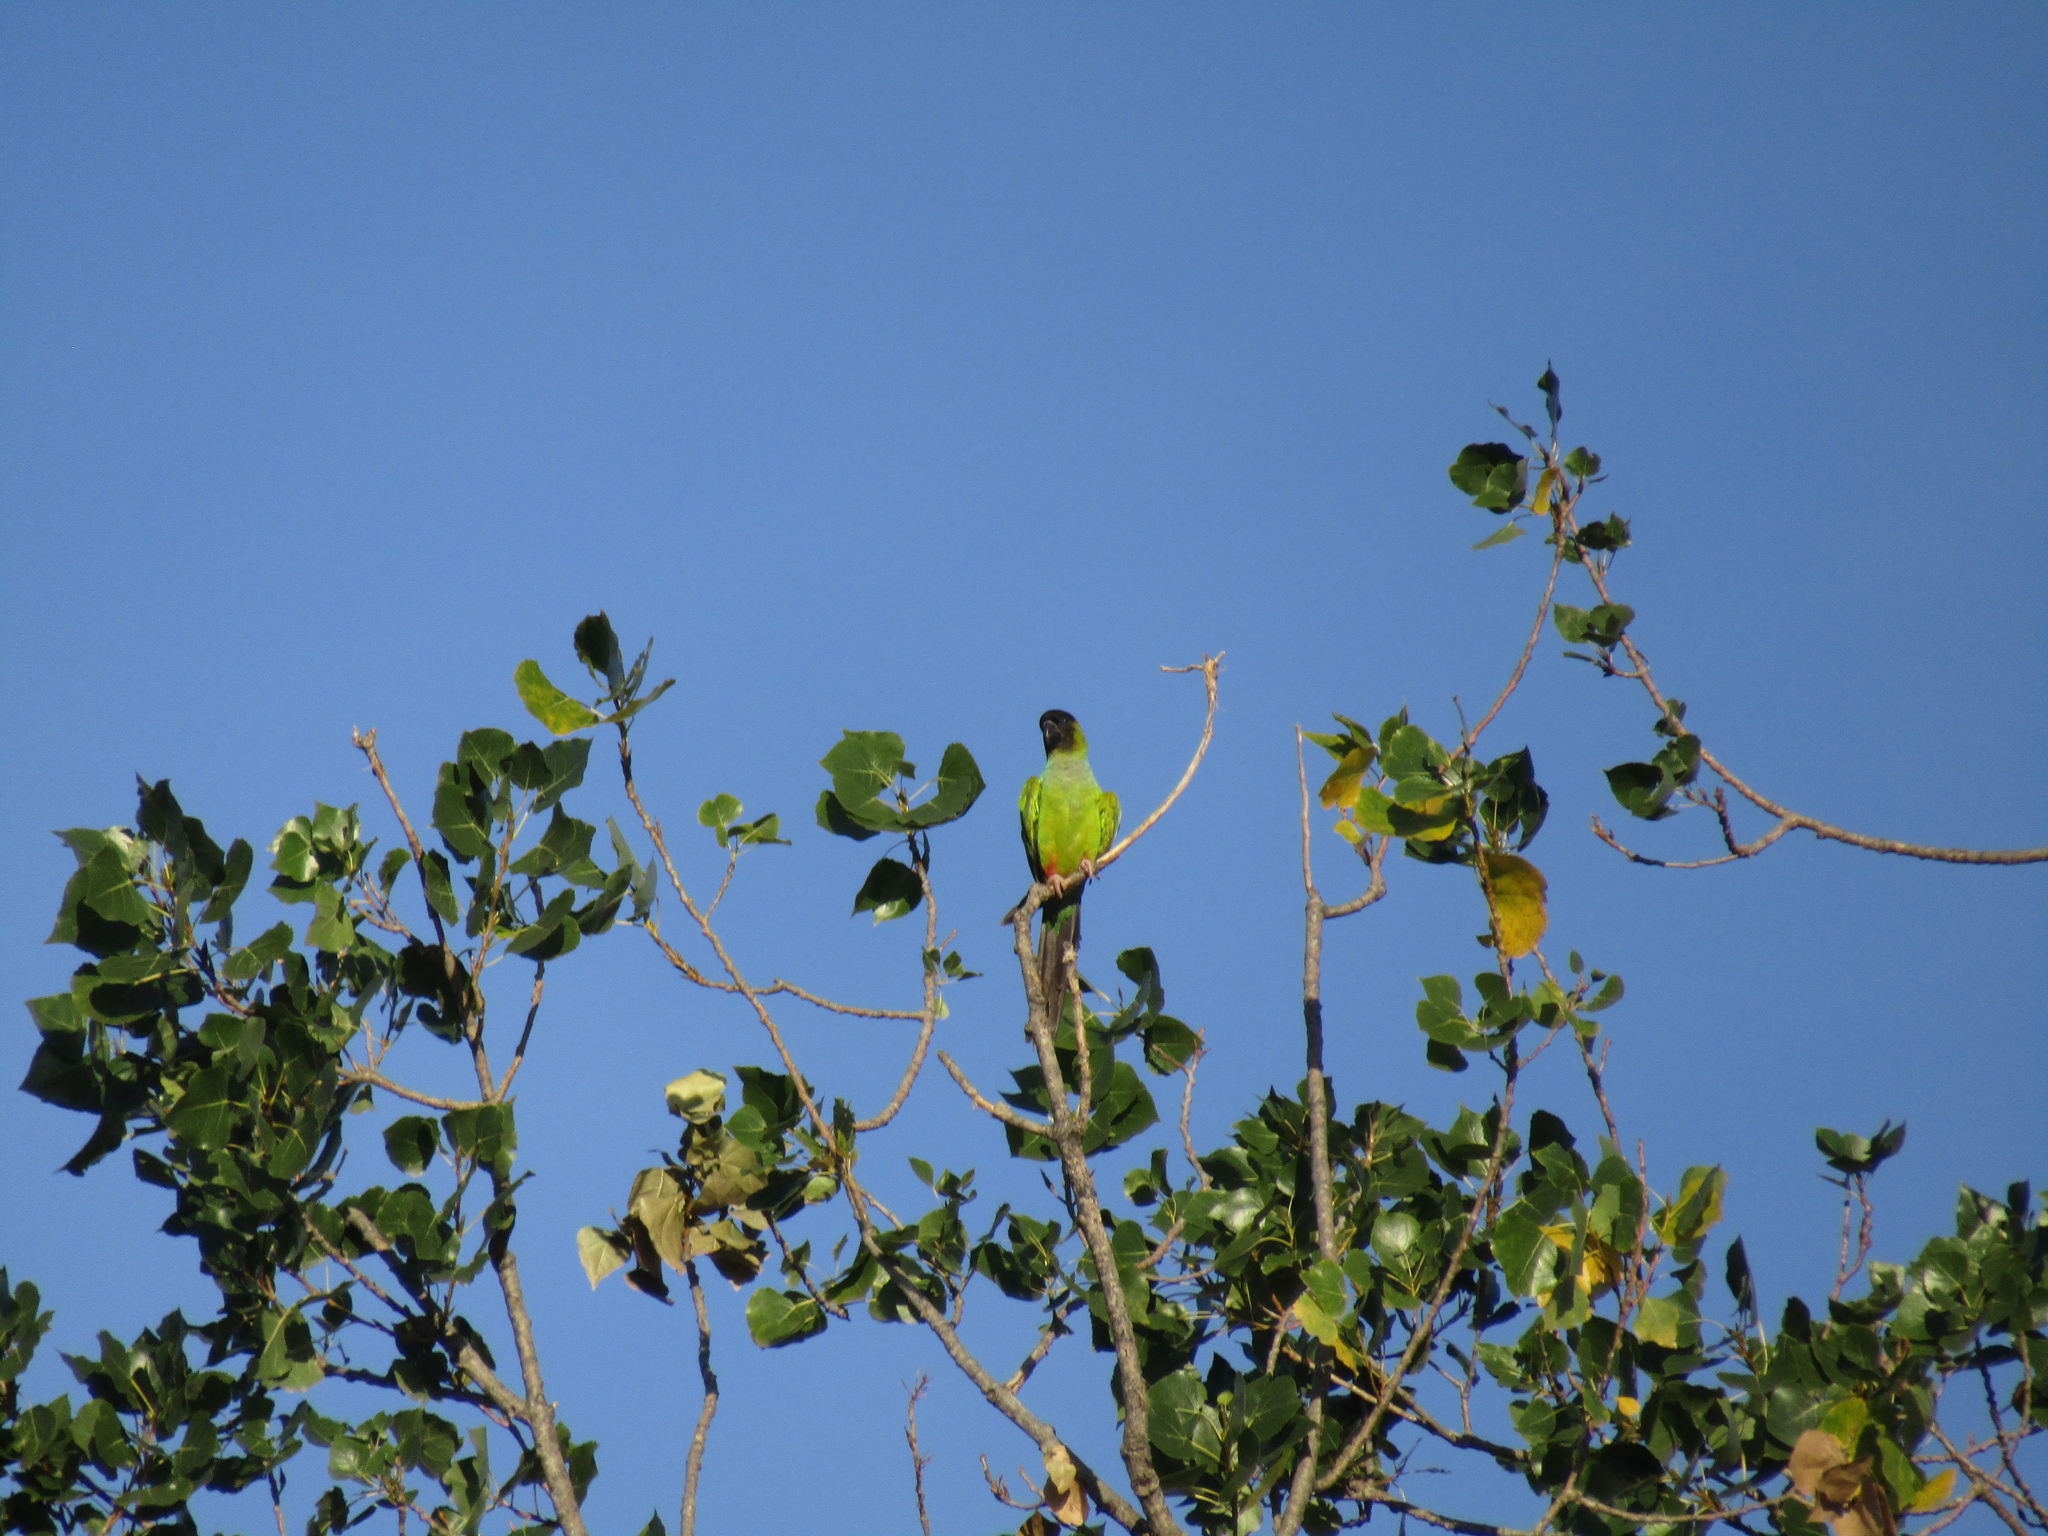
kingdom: Animalia
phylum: Chordata
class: Aves
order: Psittaciformes
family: Psittacidae
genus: Nandayus
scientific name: Nandayus nenday
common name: Nanday parakeet
